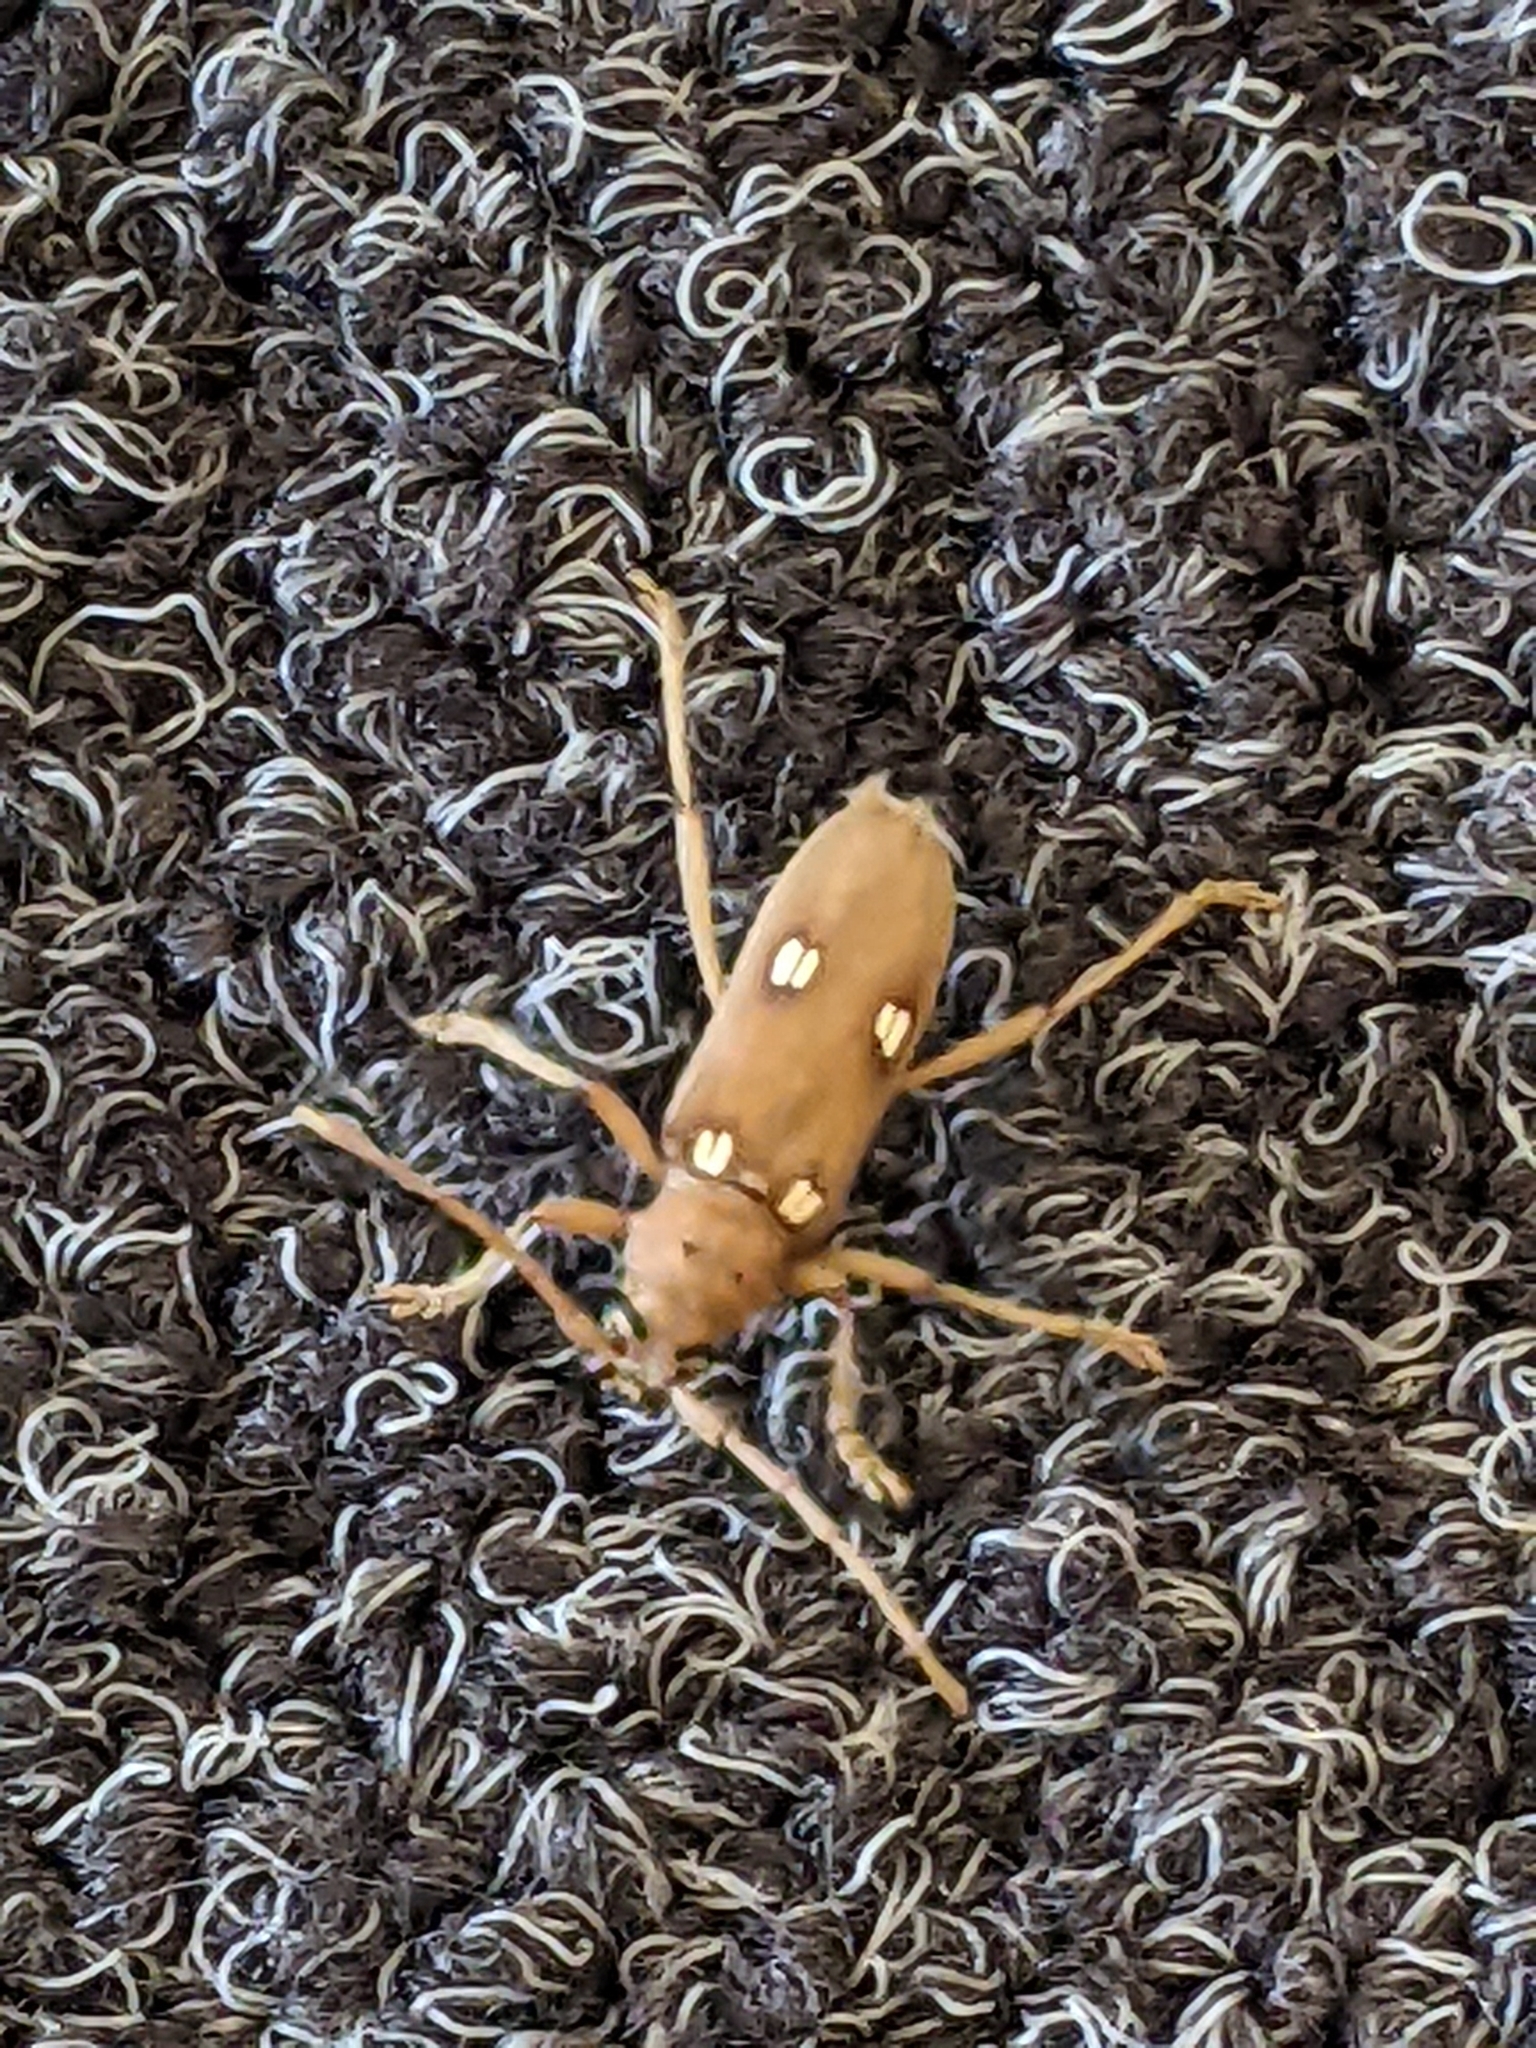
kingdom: Animalia
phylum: Arthropoda
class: Insecta
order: Coleoptera
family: Cerambycidae
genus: Eburia
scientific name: Eburia quadrigeminata
